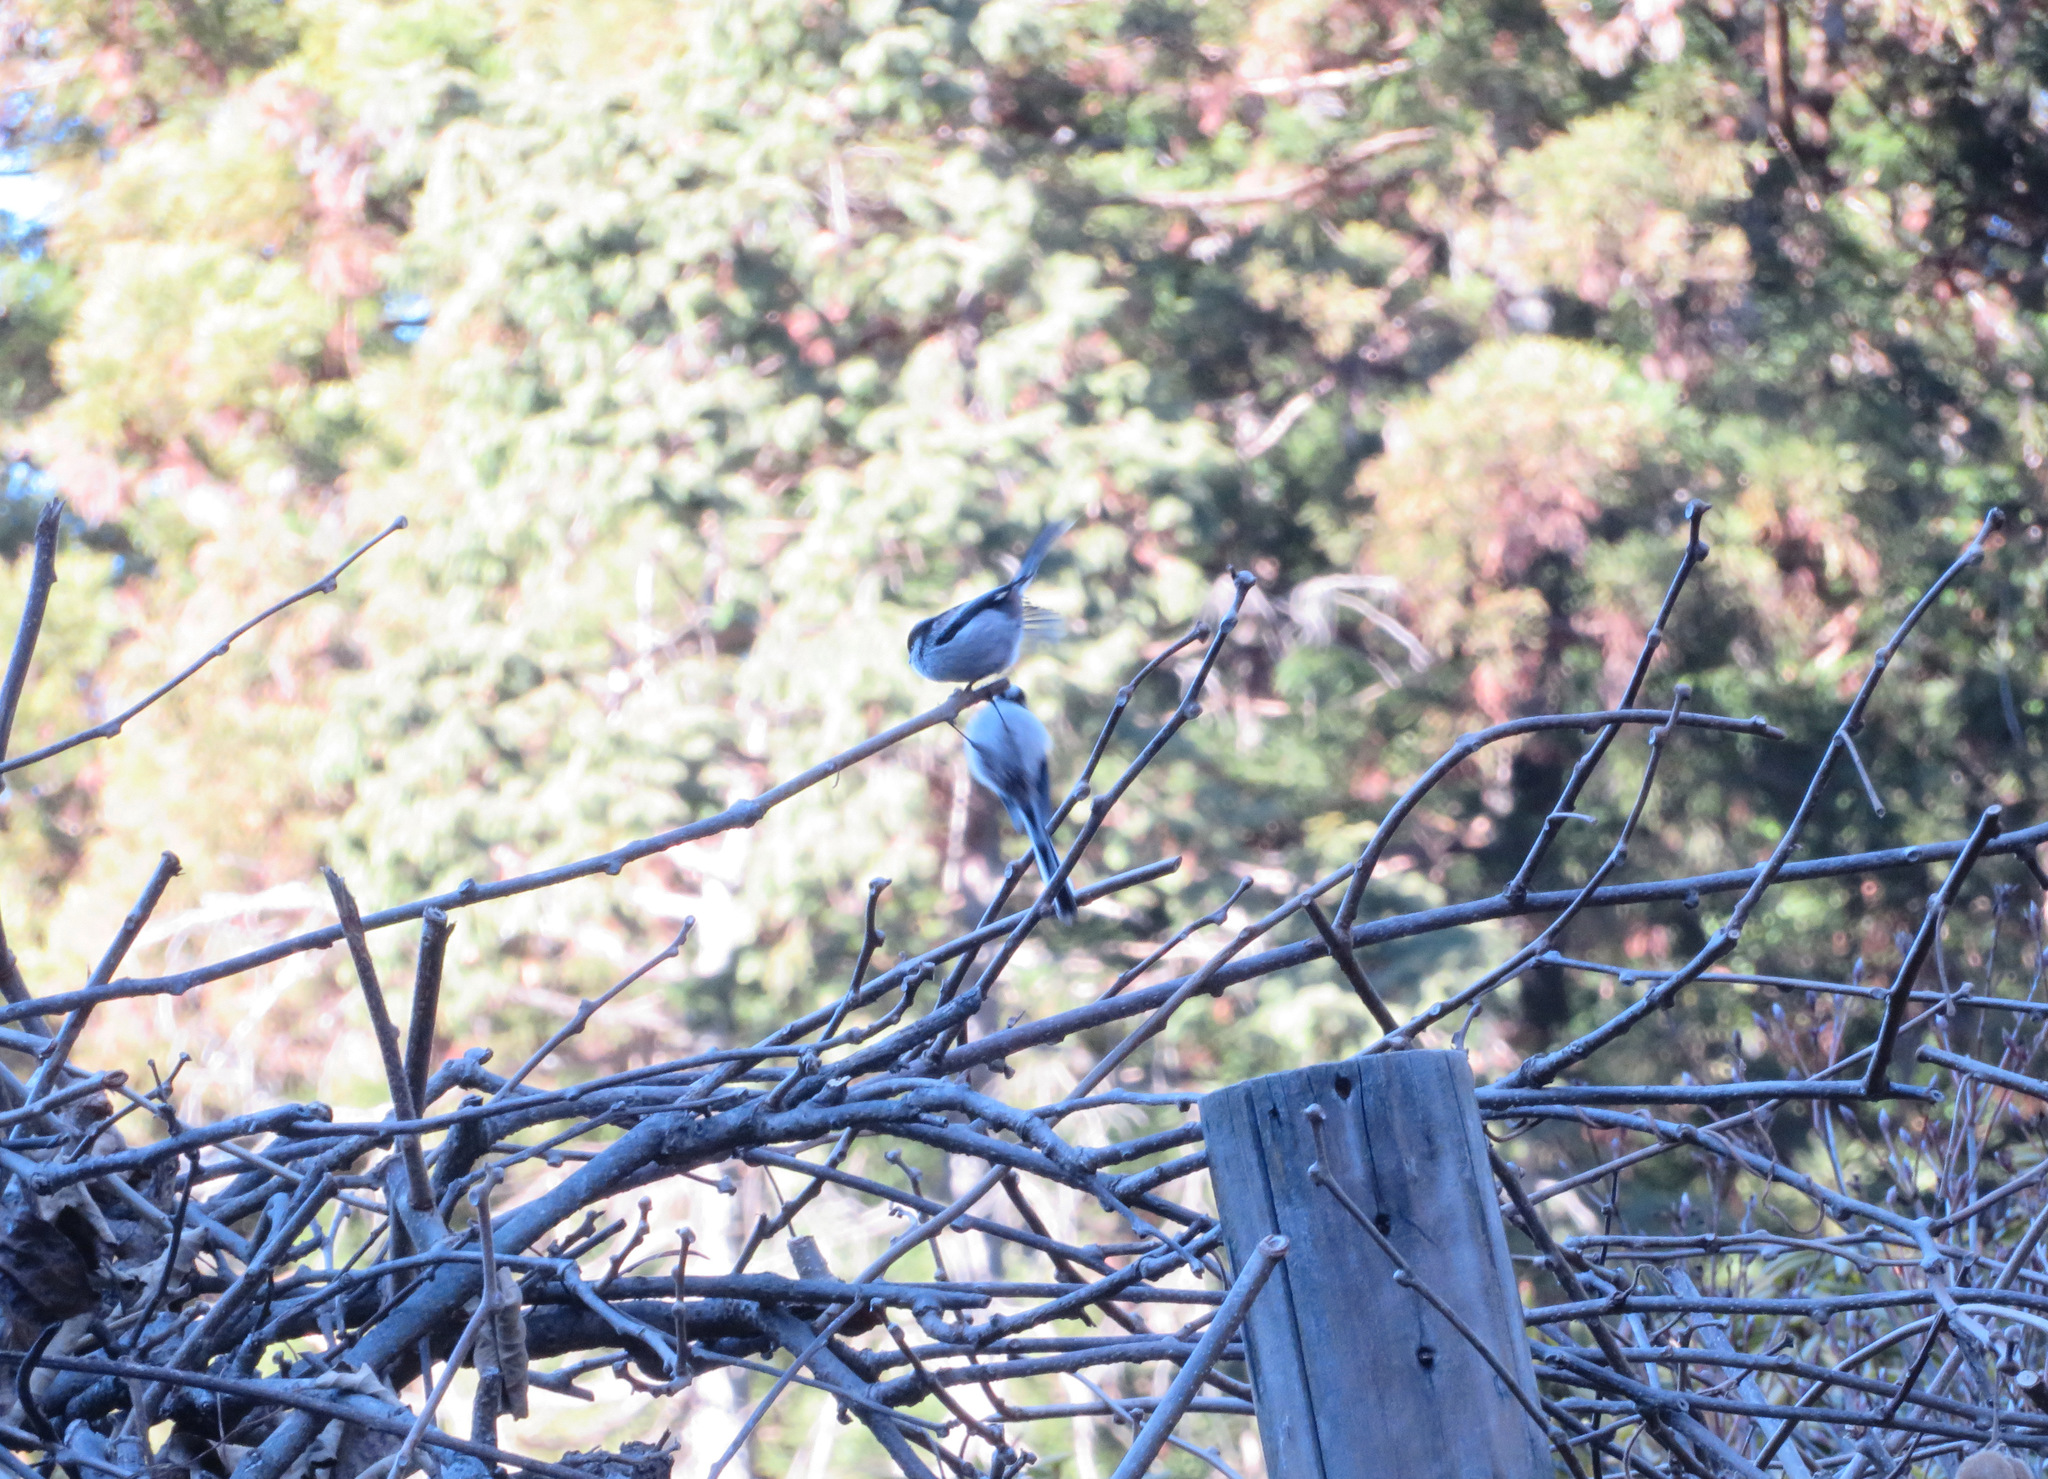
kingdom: Animalia
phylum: Chordata
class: Aves
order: Passeriformes
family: Aegithalidae
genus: Aegithalos
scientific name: Aegithalos caudatus
